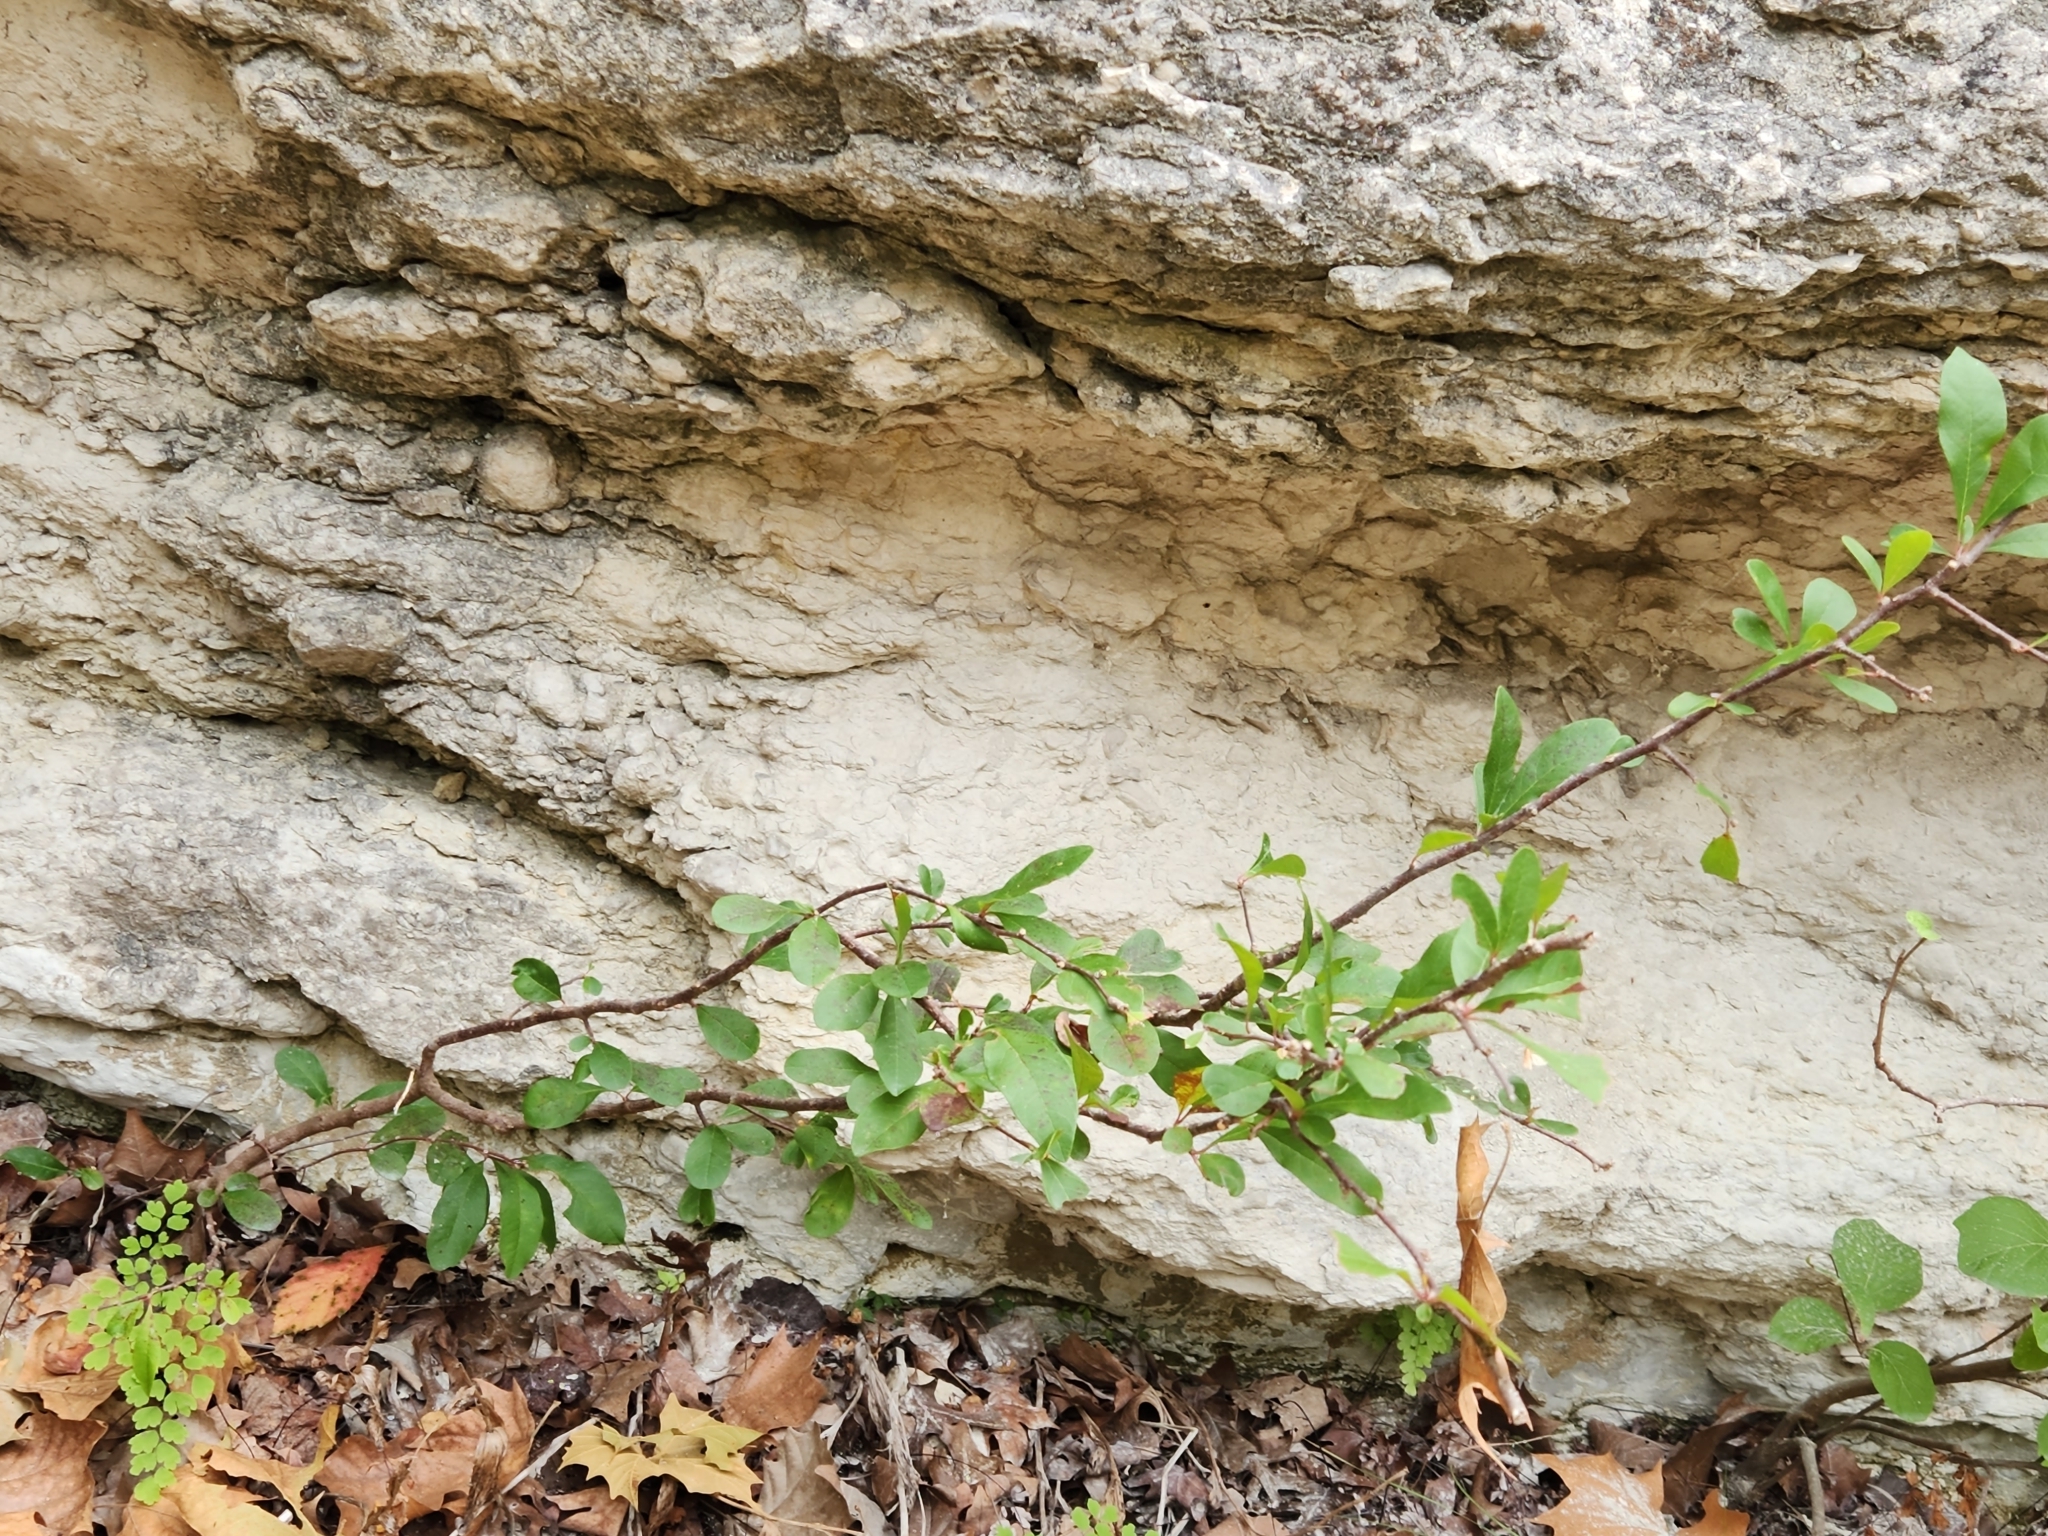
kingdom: Plantae
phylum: Tracheophyta
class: Magnoliopsida
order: Ericales
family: Sapotaceae
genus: Sideroxylon
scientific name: Sideroxylon lanuginosum
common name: Chittamwood
